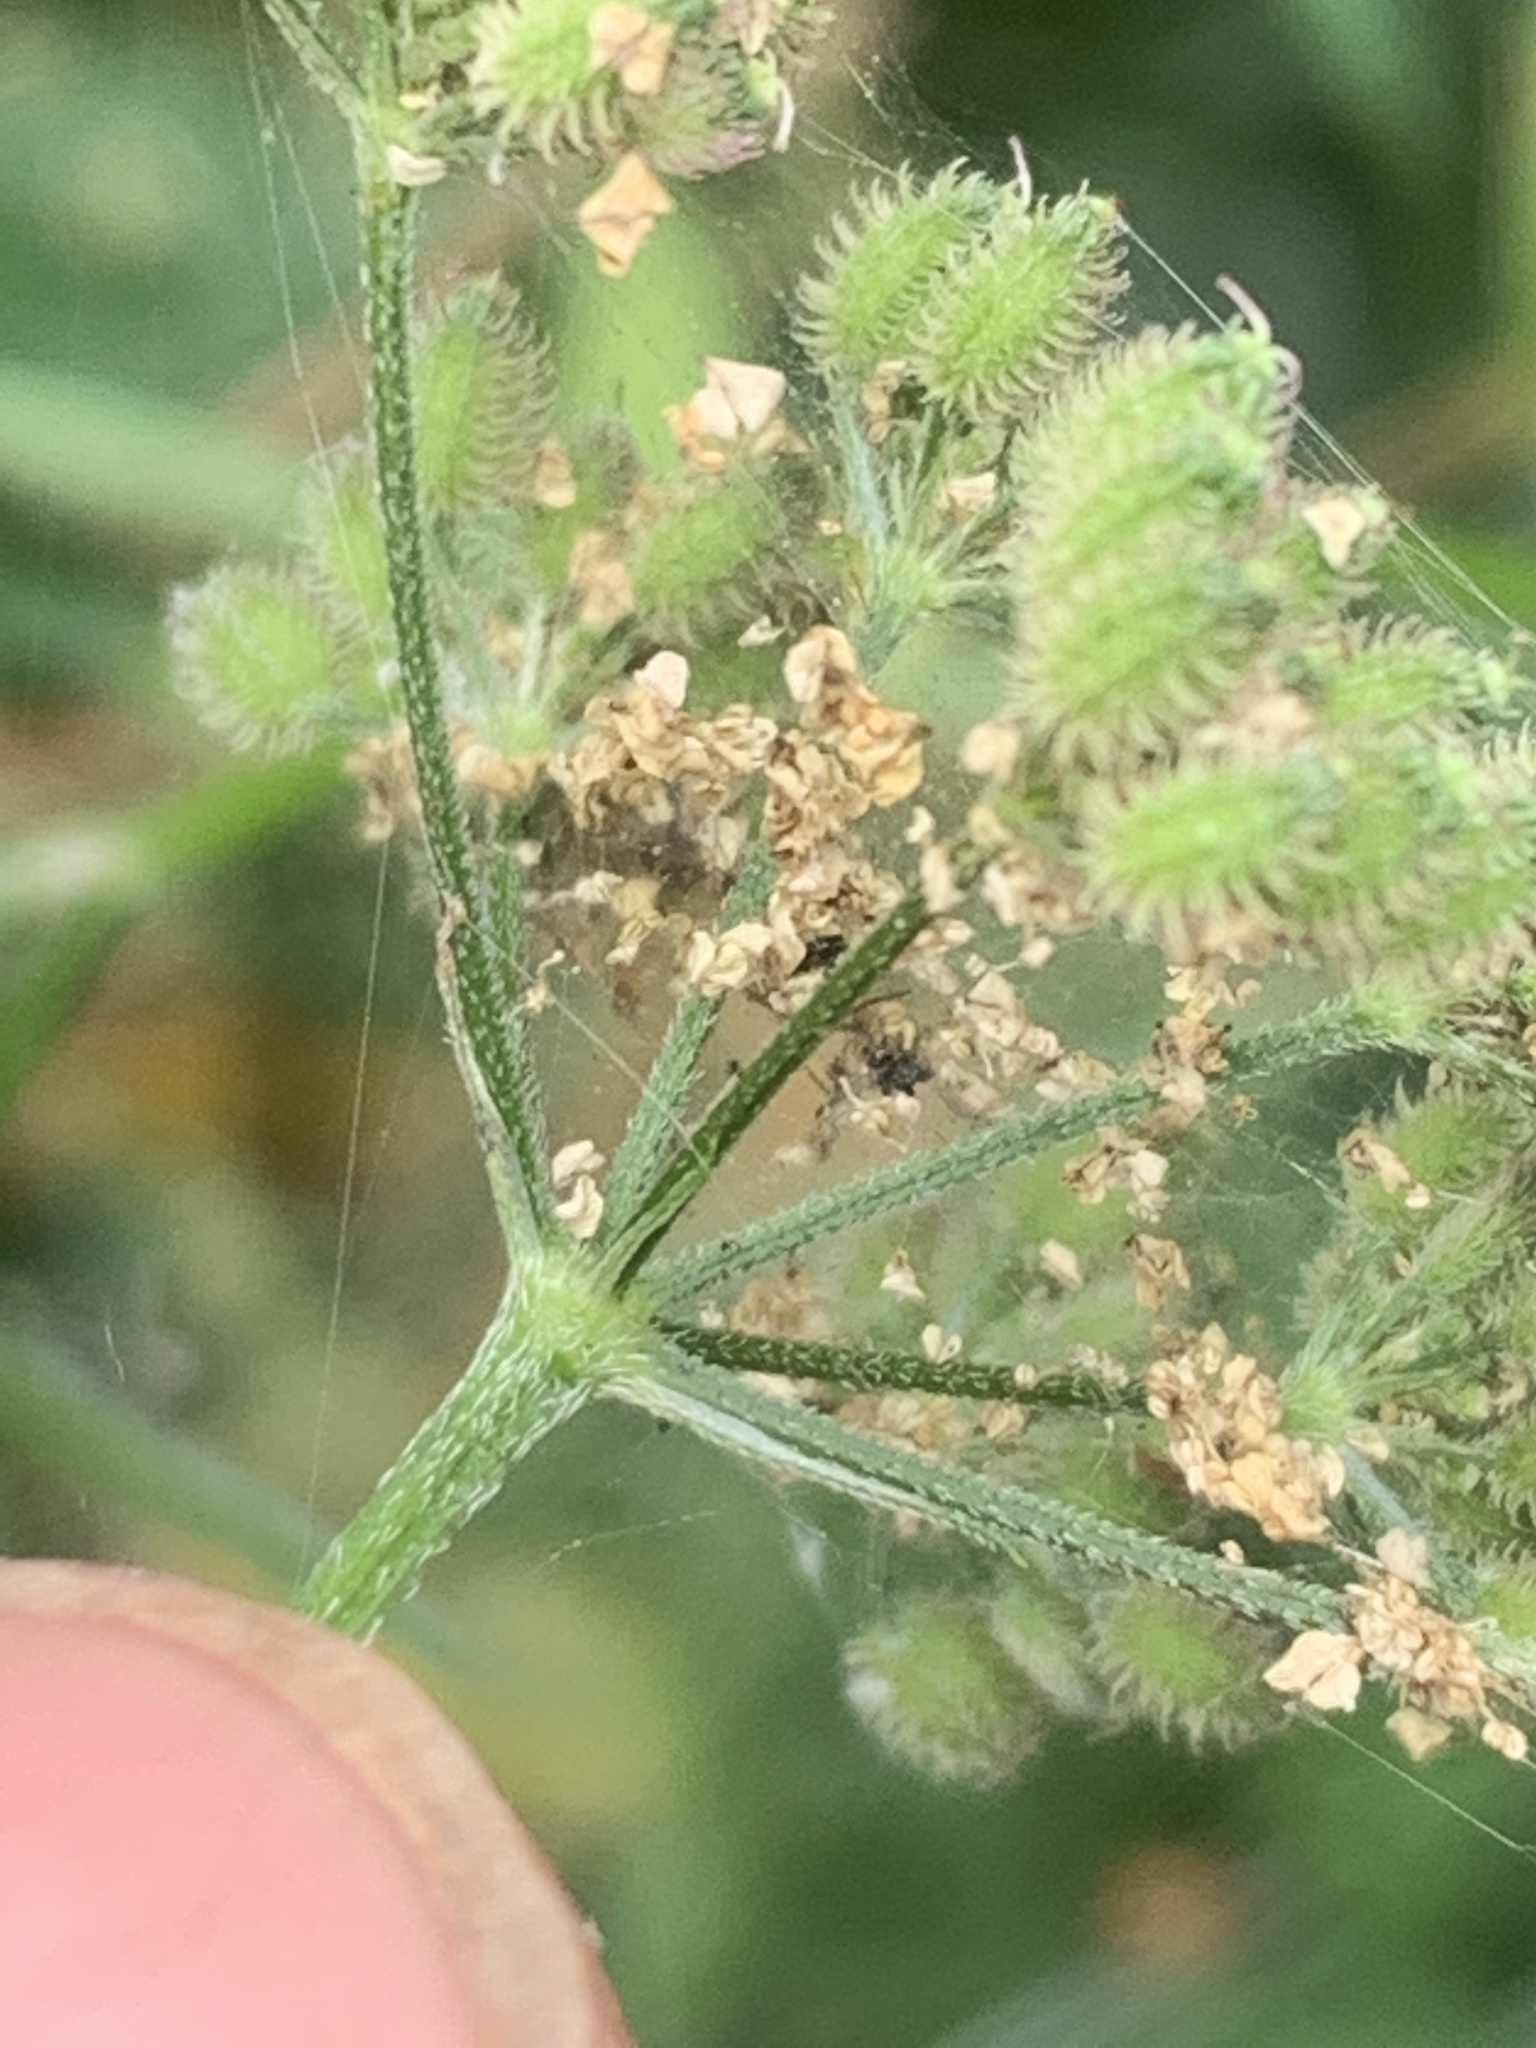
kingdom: Plantae
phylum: Tracheophyta
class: Magnoliopsida
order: Apiales
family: Apiaceae
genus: Torilis
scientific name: Torilis japonica
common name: Upright hedge-parsley
